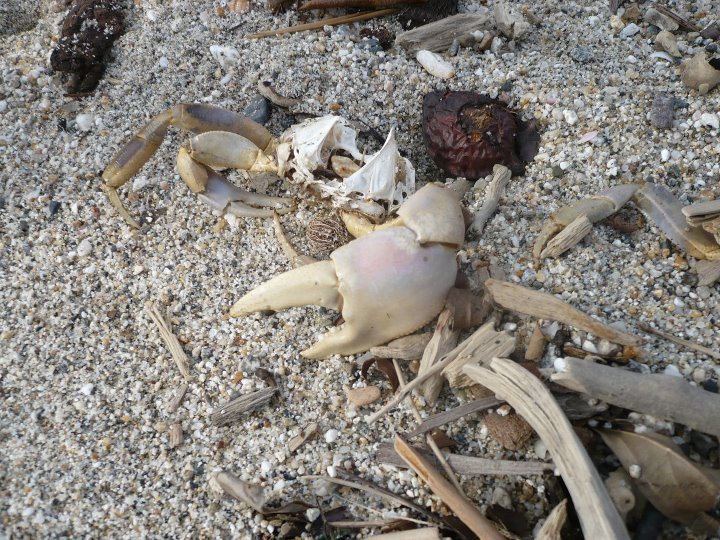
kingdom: Animalia
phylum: Arthropoda
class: Malacostraca
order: Decapoda
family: Gecarcinidae
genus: Cardisoma
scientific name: Cardisoma guanhumi
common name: Great land crab
